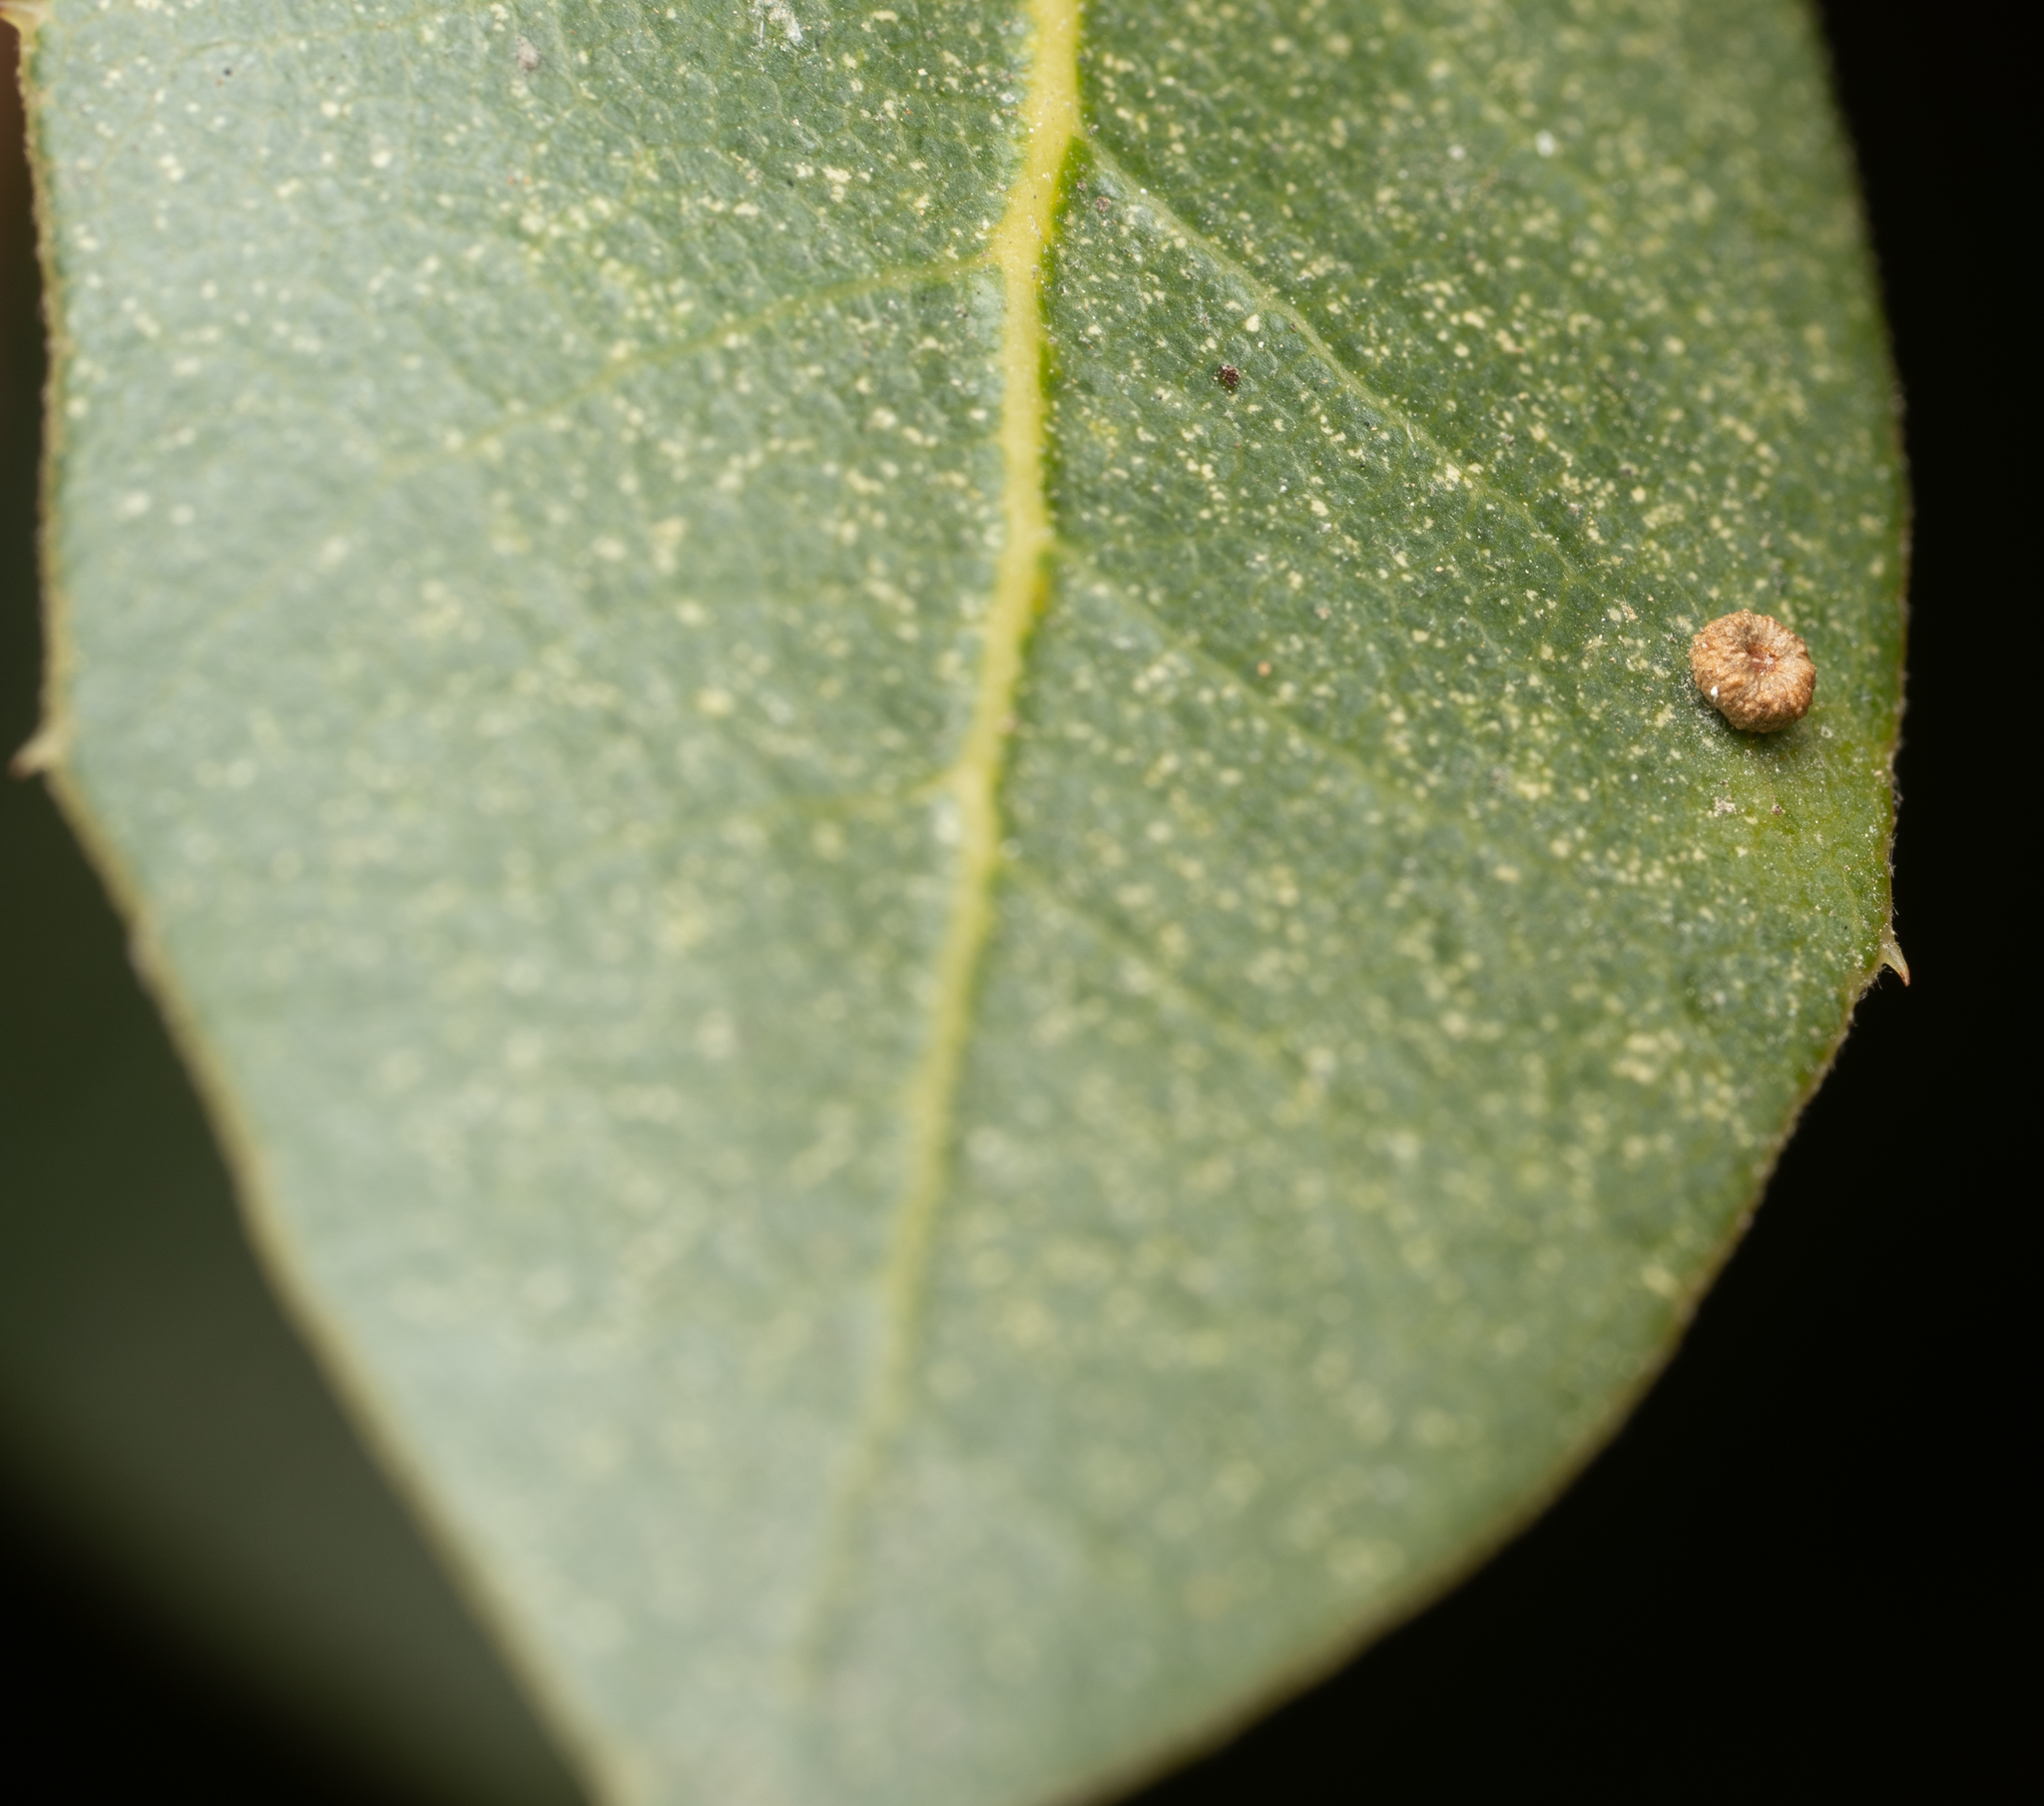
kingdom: Animalia
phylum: Arthropoda
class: Insecta
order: Hymenoptera
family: Cynipidae
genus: Dryocosmus
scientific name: Dryocosmus
